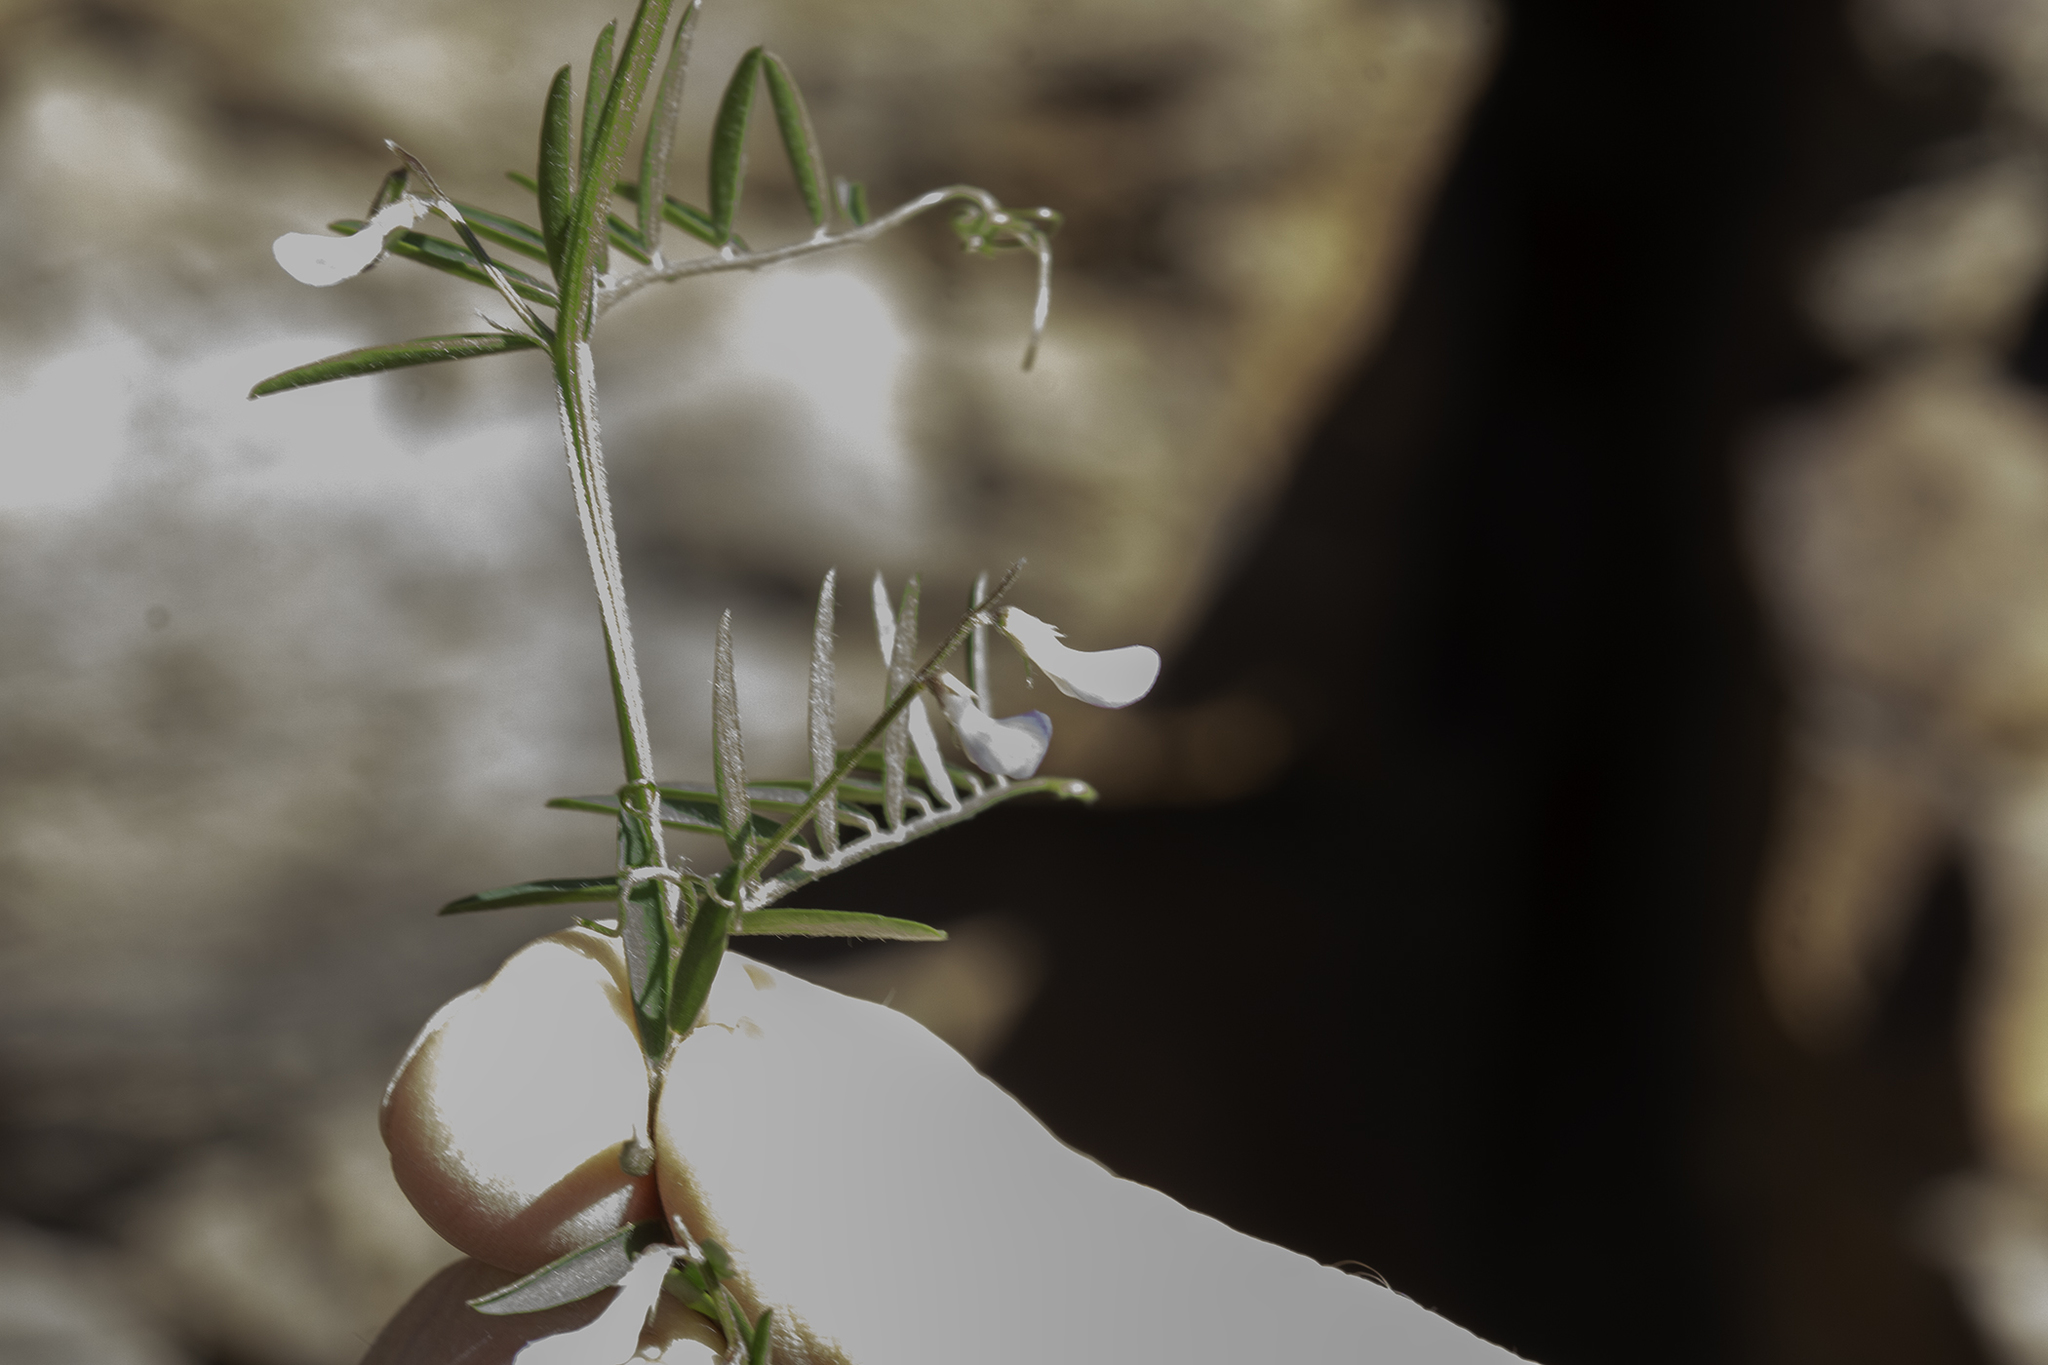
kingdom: Plantae
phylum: Tracheophyta
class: Magnoliopsida
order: Fabales
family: Fabaceae
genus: Vicia
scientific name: Vicia ludoviciana
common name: Louisiana vetch
